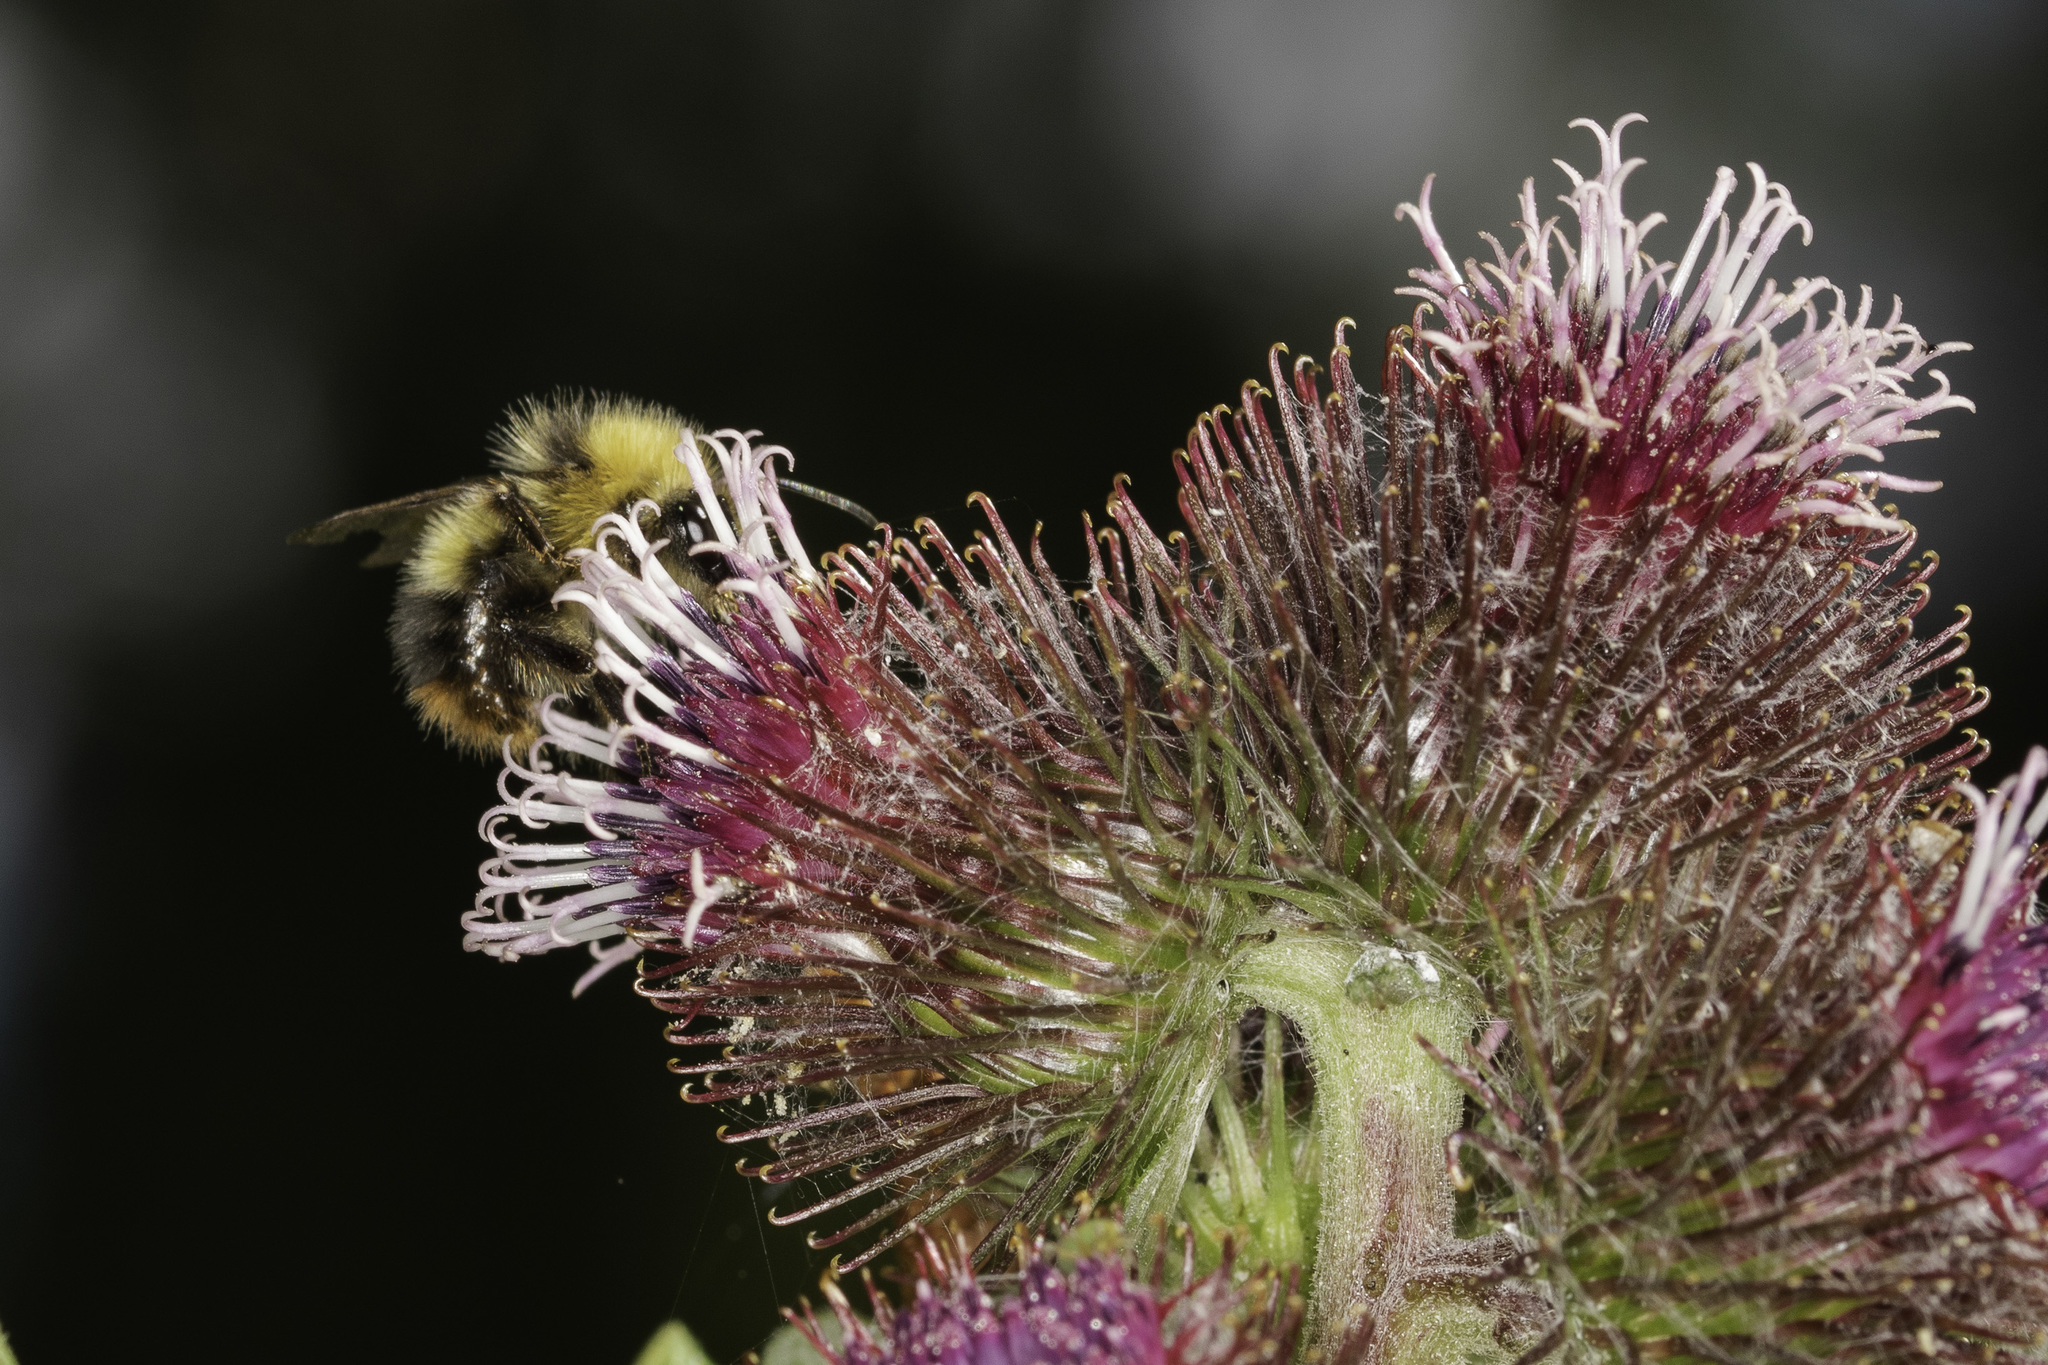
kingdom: Animalia
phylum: Arthropoda
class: Insecta
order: Hymenoptera
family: Apidae
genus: Bombus
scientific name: Bombus pratorum
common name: Early humble-bee
